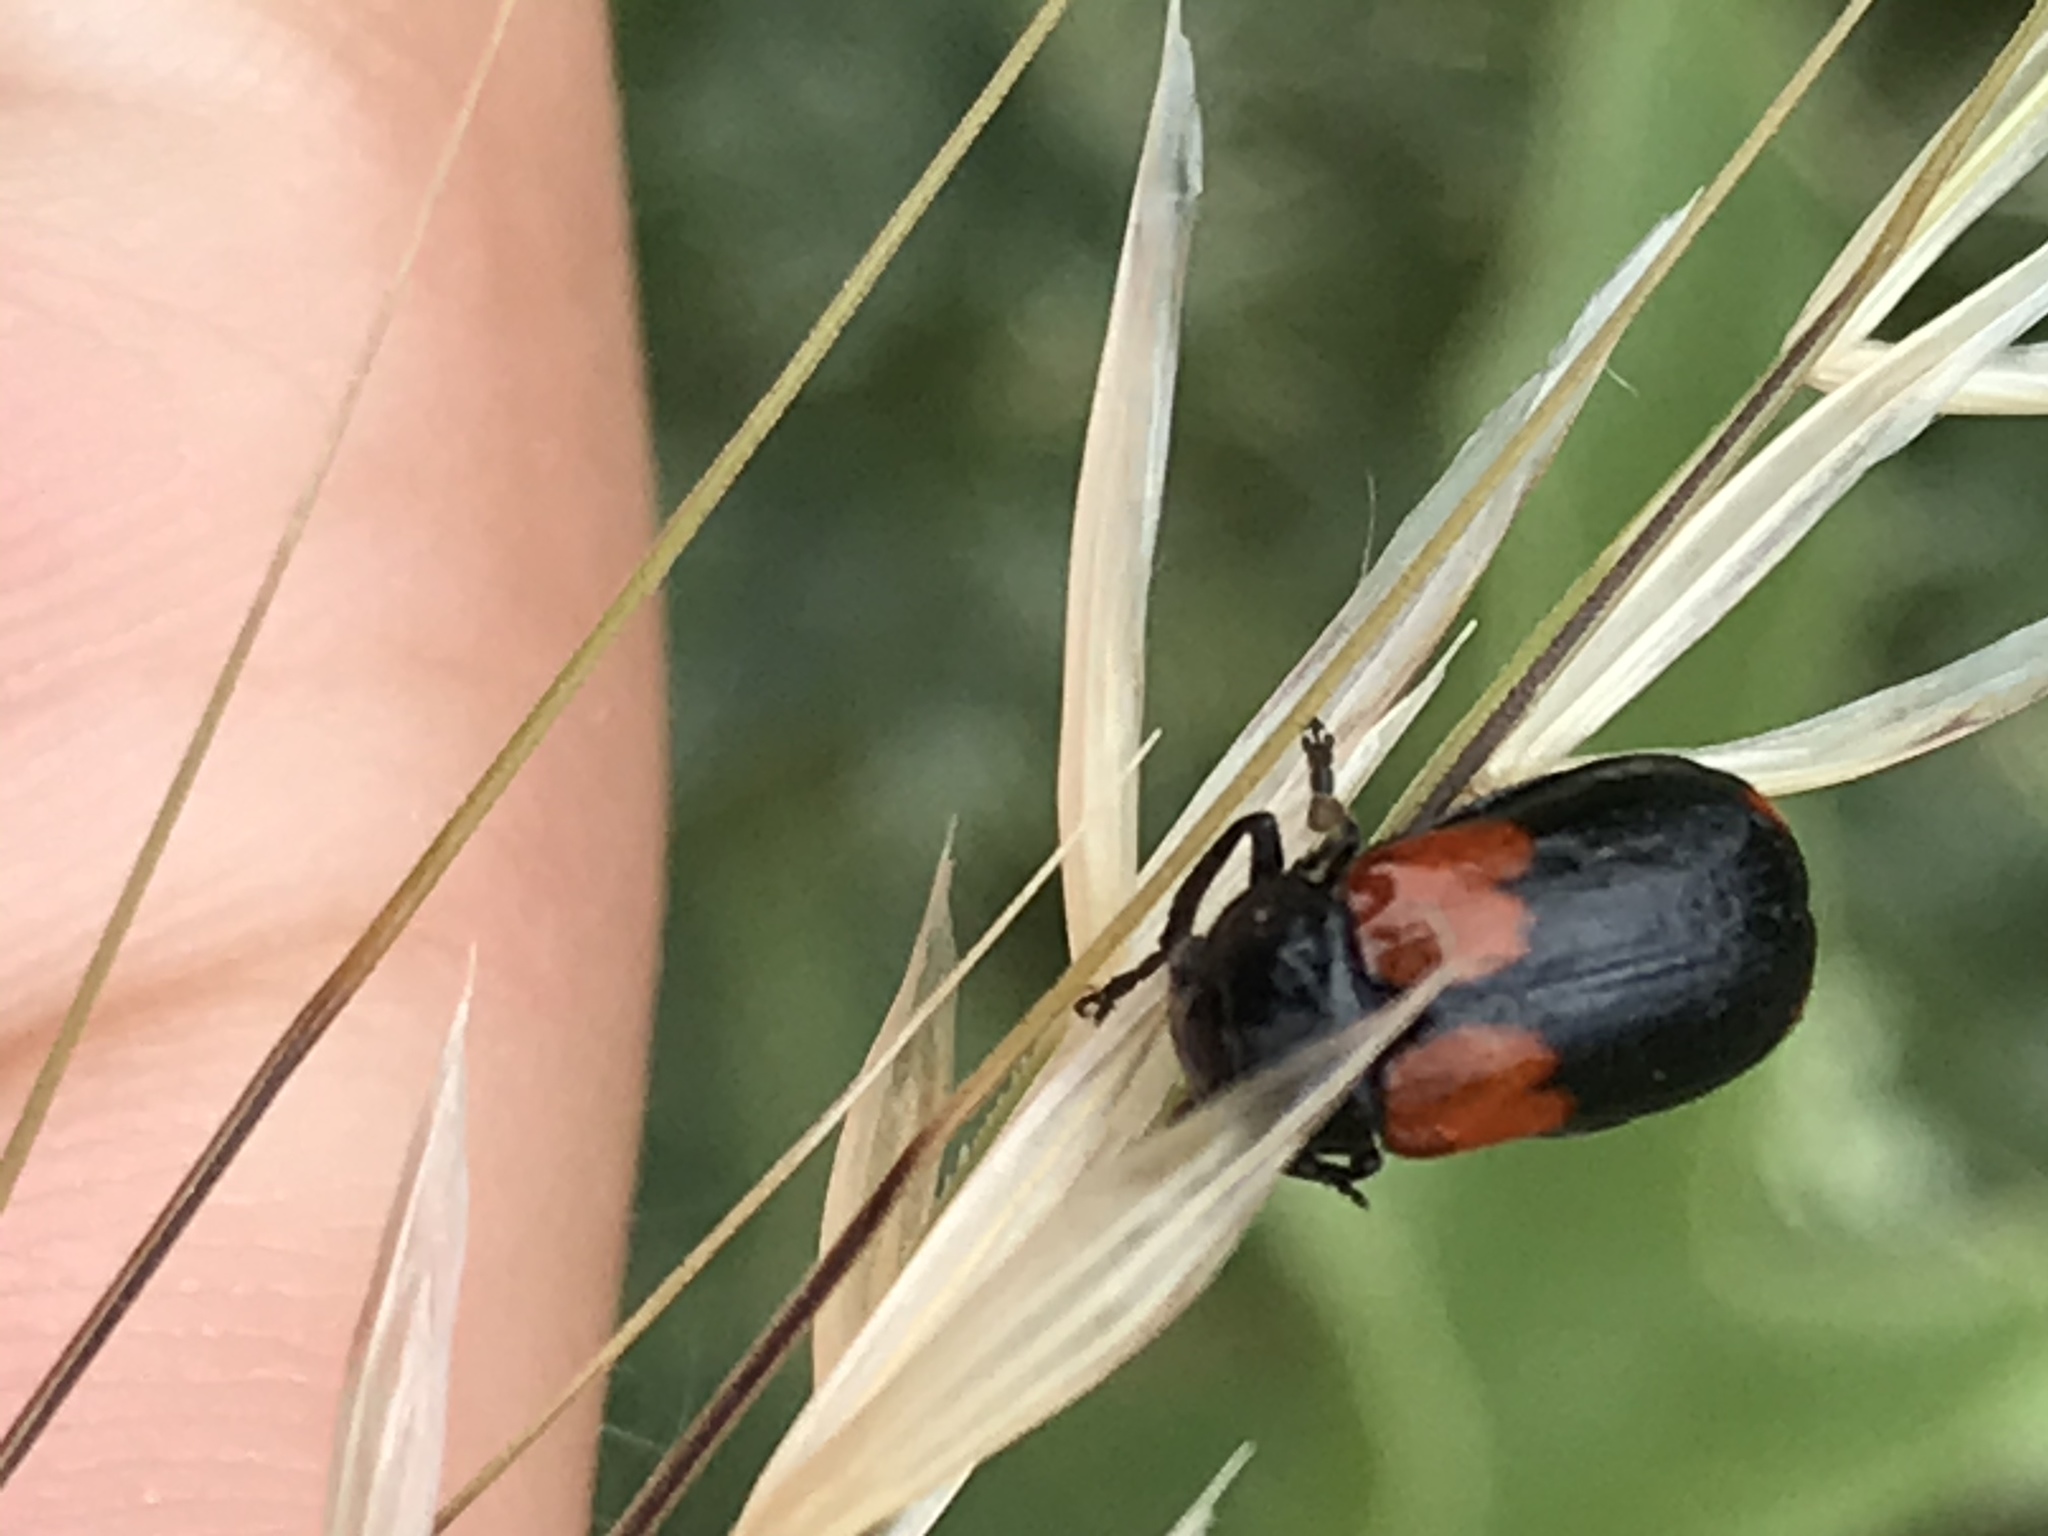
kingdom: Animalia
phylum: Arthropoda
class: Insecta
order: Coleoptera
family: Chrysomelidae
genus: Anomoea
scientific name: Anomoea rufifrons
